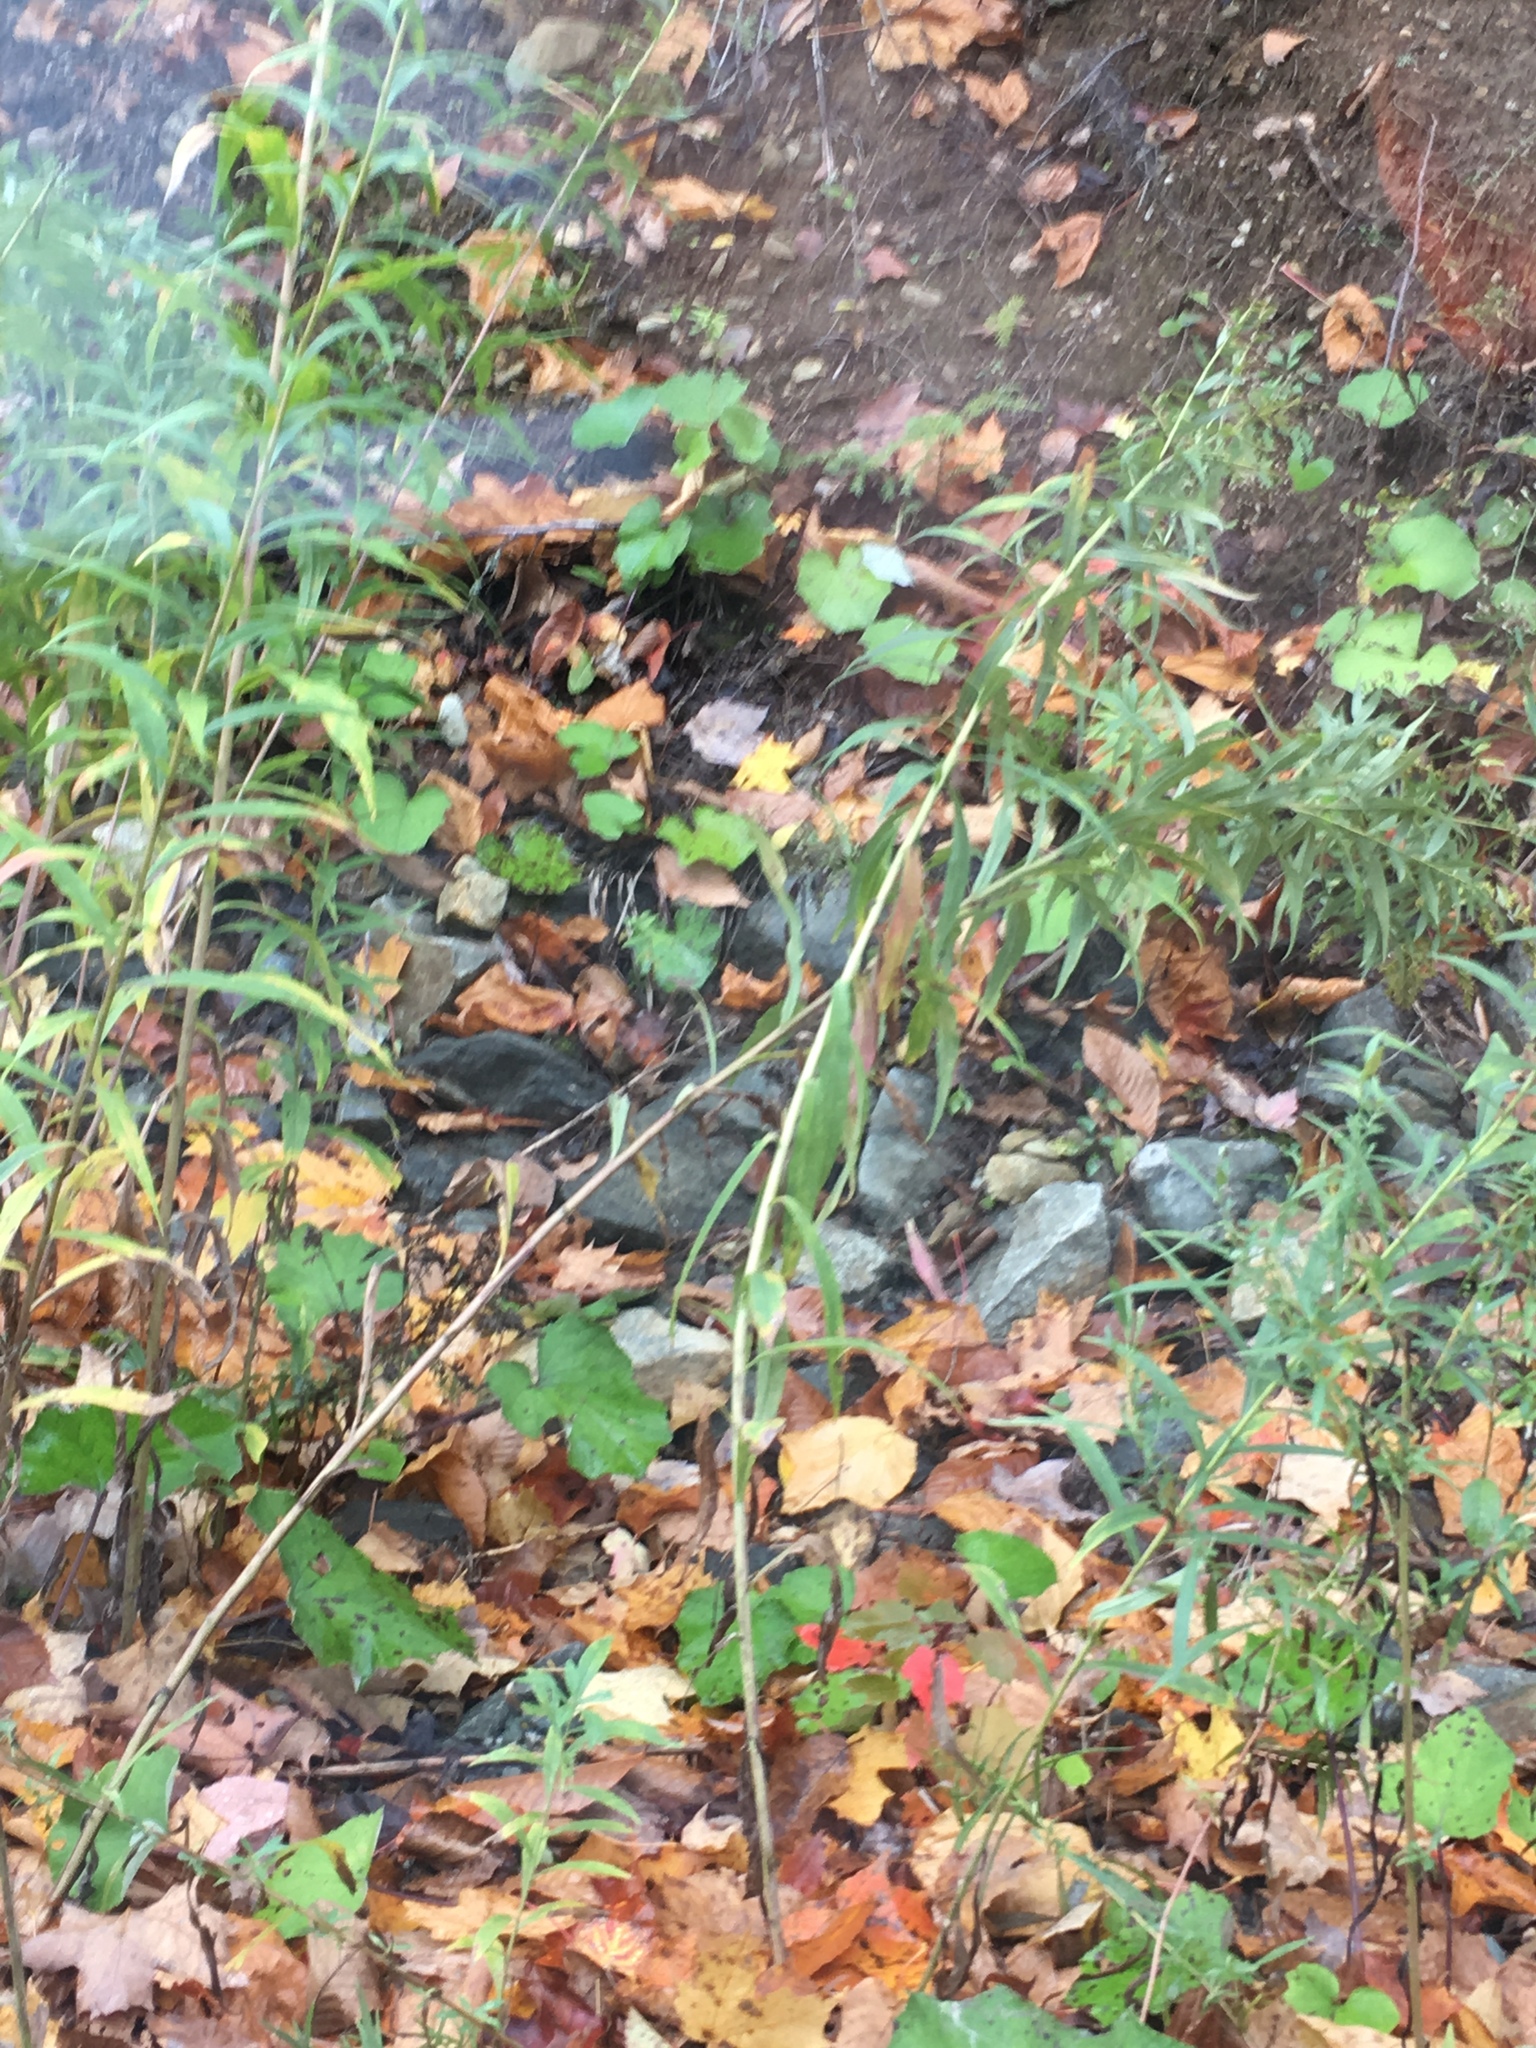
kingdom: Plantae
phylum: Tracheophyta
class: Magnoliopsida
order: Asterales
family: Asteraceae
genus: Tussilago
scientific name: Tussilago farfara
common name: Coltsfoot
